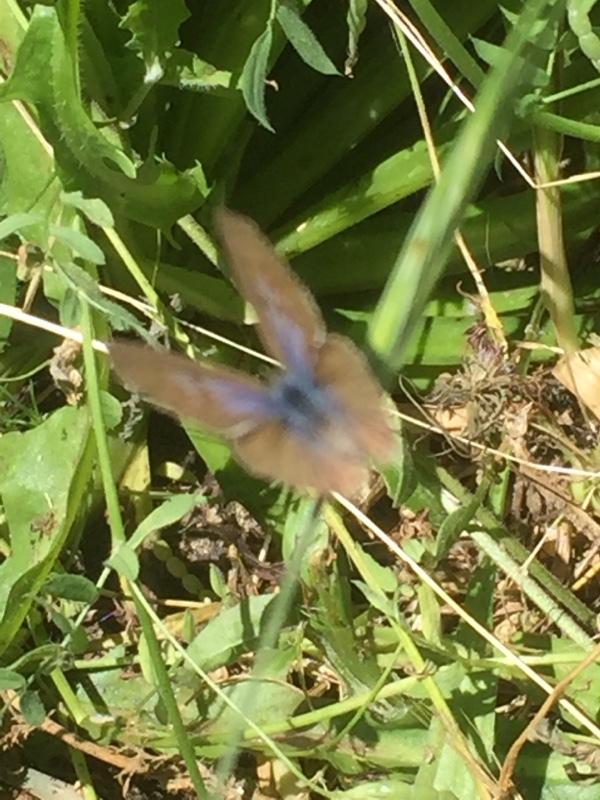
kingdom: Animalia
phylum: Arthropoda
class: Insecta
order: Lepidoptera
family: Lycaenidae
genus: Leptotes
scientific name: Leptotes pirithous
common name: Lang's short-tailed blue
